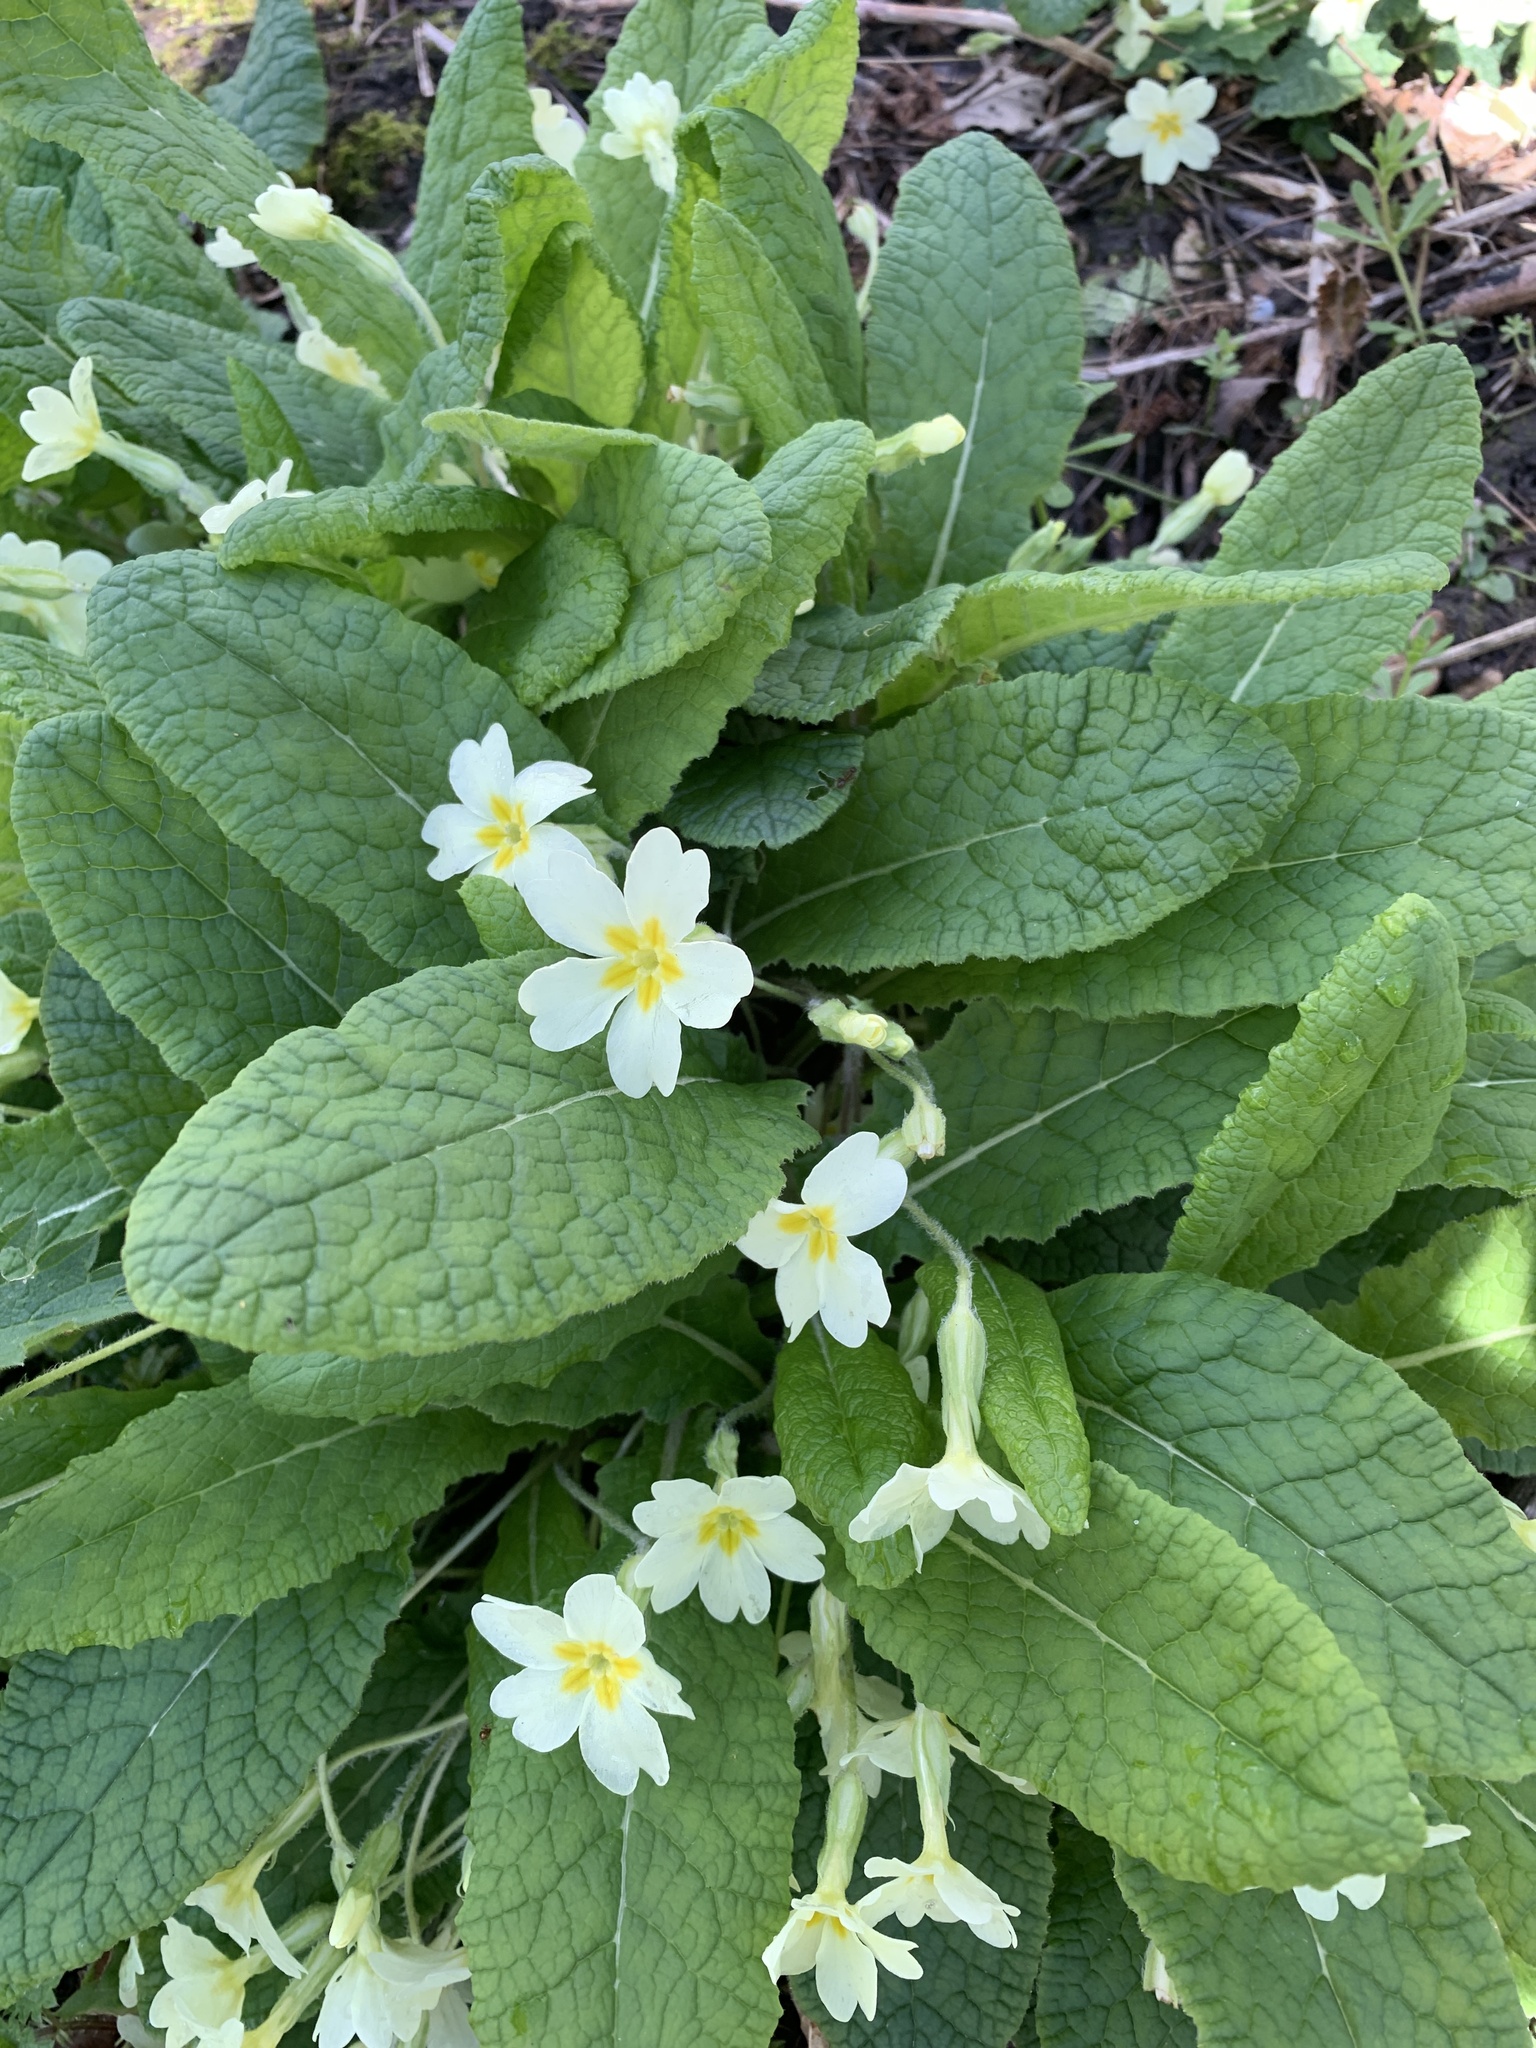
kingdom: Plantae
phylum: Tracheophyta
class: Magnoliopsida
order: Ericales
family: Primulaceae
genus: Primula
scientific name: Primula vulgaris
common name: Primrose
